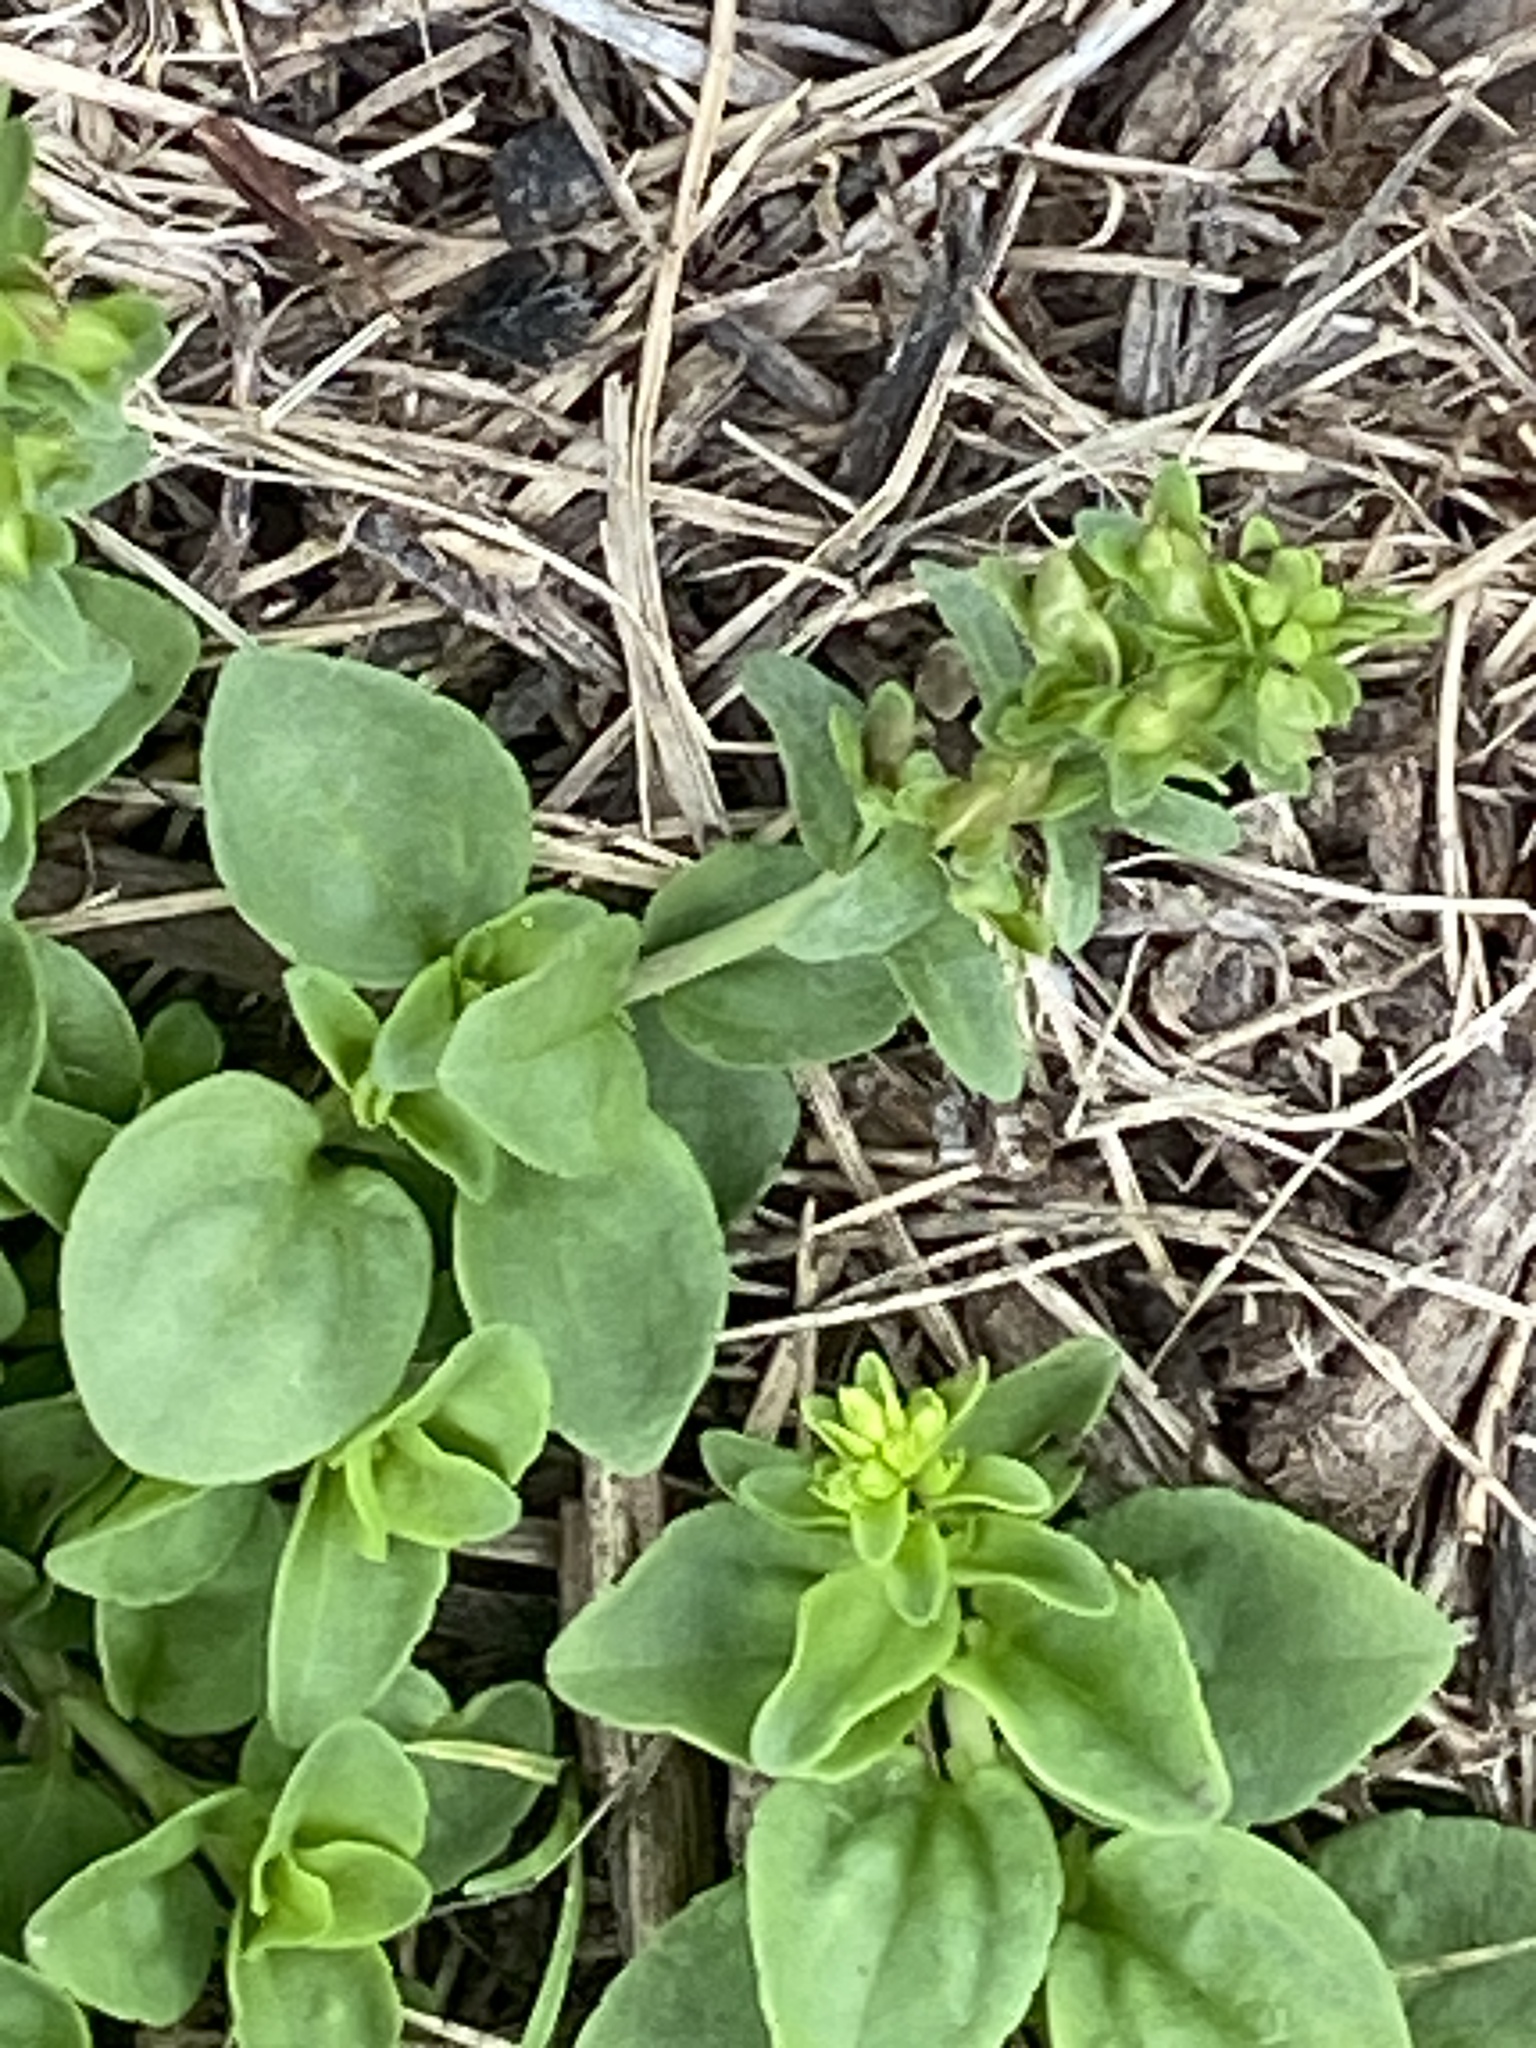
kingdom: Plantae
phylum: Tracheophyta
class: Magnoliopsida
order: Lamiales
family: Plantaginaceae
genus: Veronica
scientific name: Veronica serpyllifolia
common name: Thyme-leaved speedwell
